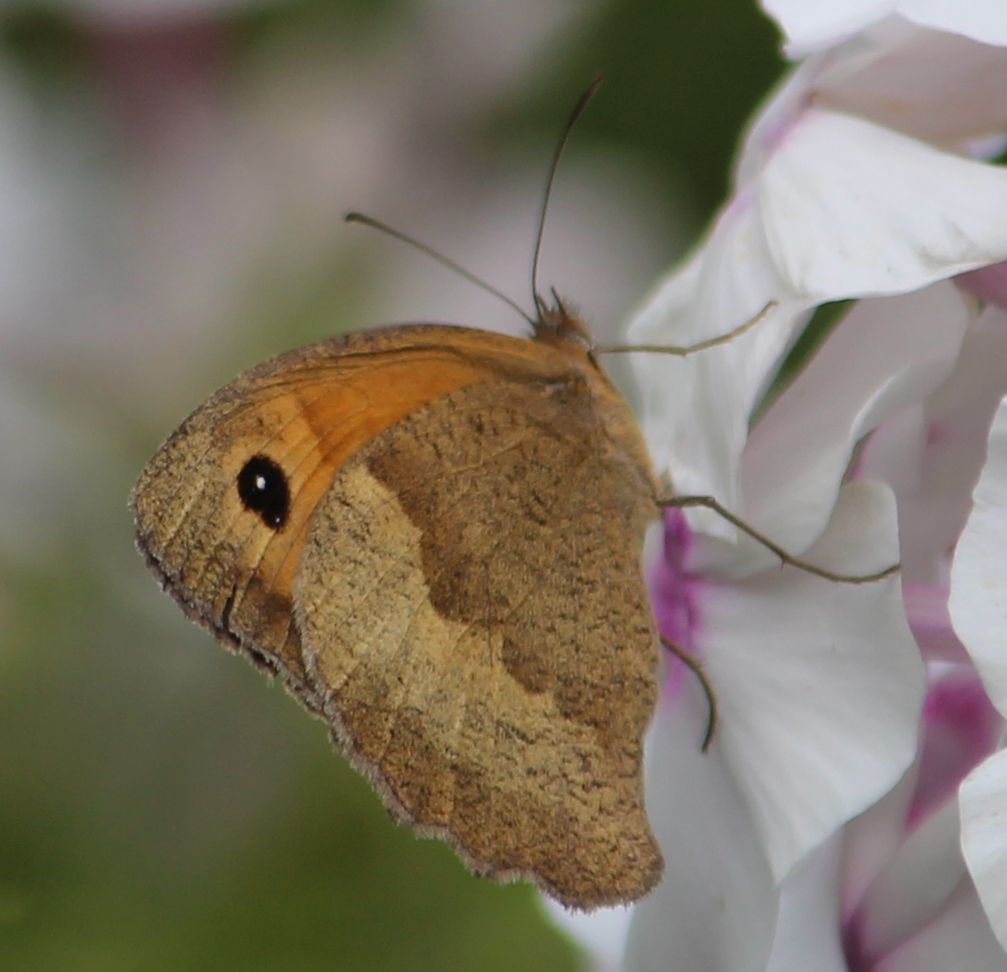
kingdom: Animalia
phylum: Arthropoda
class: Insecta
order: Lepidoptera
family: Nymphalidae
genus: Maniola
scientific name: Maniola jurtina
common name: Meadow brown
